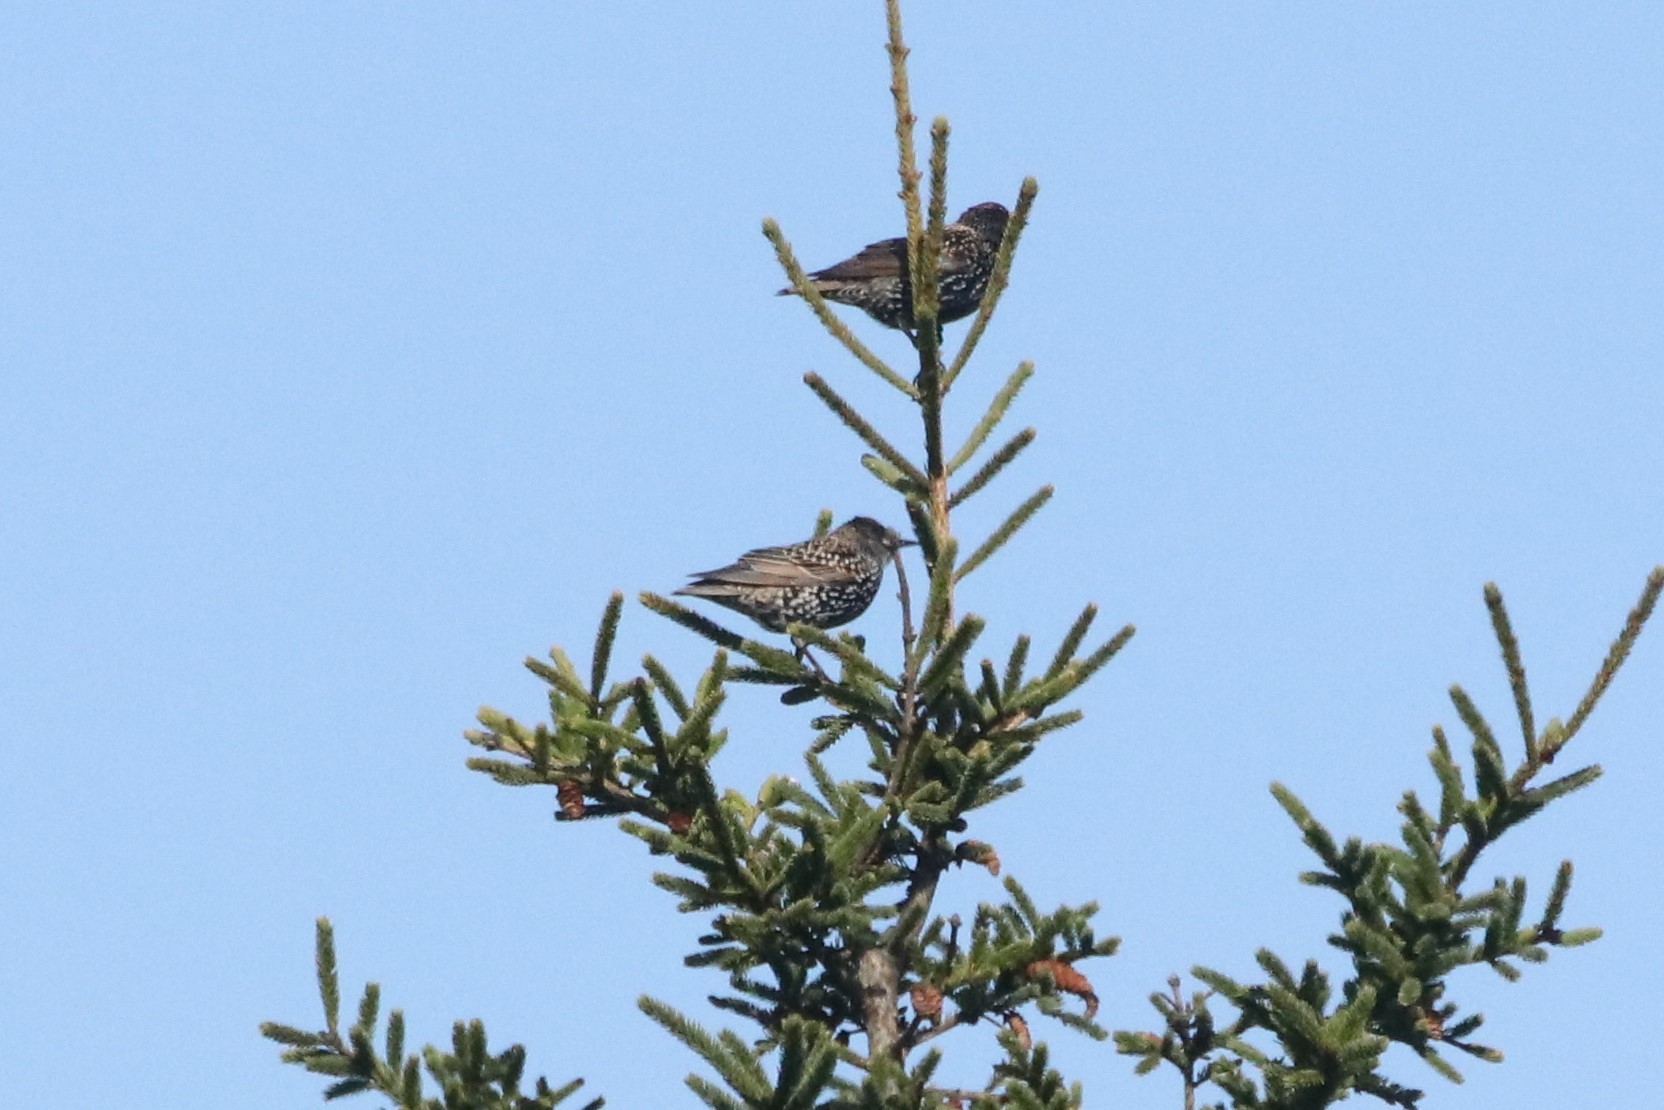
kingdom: Animalia
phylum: Chordata
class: Aves
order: Passeriformes
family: Sturnidae
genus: Sturnus
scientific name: Sturnus vulgaris
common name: Common starling
